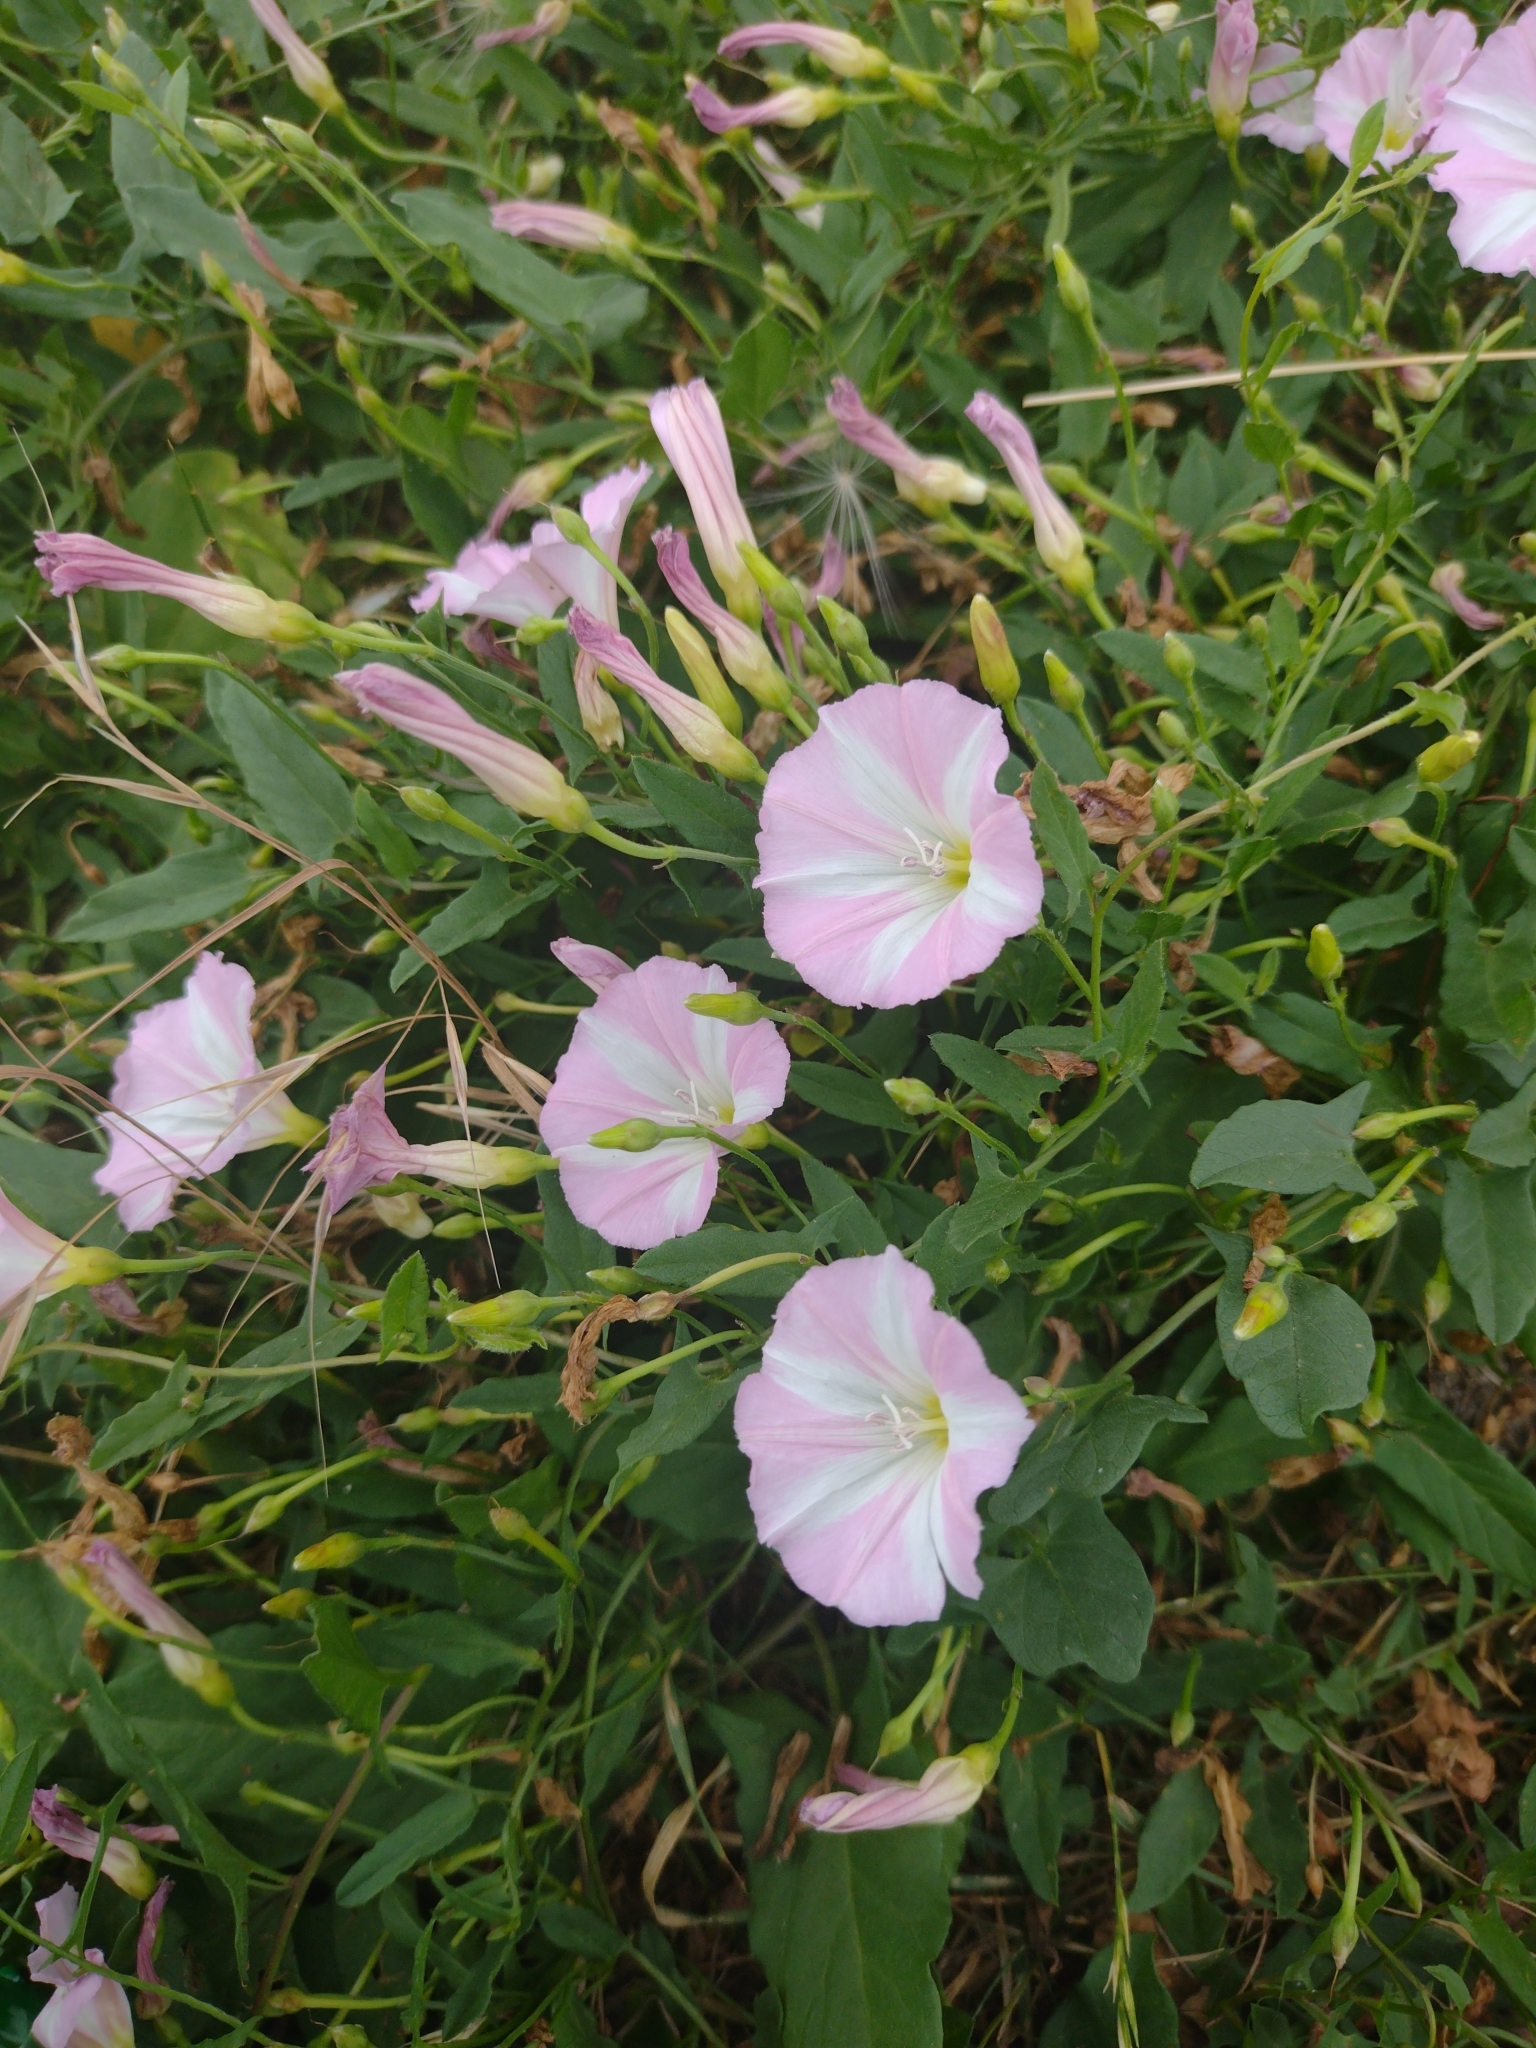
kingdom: Plantae
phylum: Tracheophyta
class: Magnoliopsida
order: Solanales
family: Convolvulaceae
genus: Convolvulus
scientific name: Convolvulus arvensis
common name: Field bindweed
